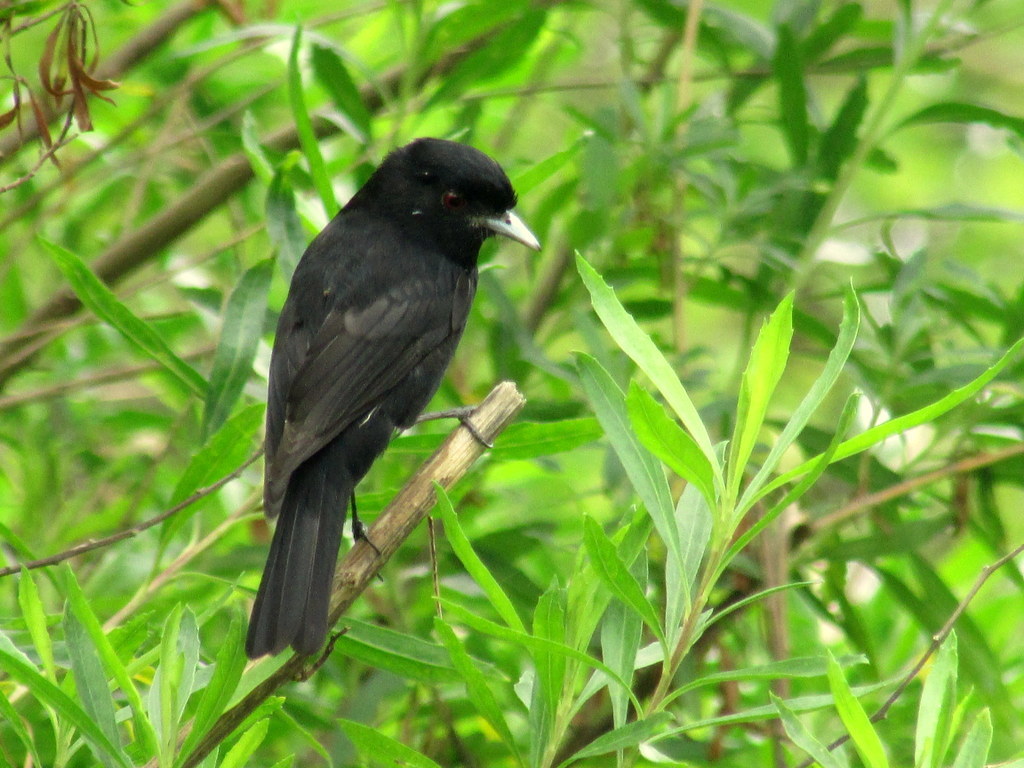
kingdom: Animalia
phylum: Chordata
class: Aves
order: Passeriformes
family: Tyrannidae
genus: Knipolegus
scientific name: Knipolegus cyanirostris
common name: Blue-billed black tyrant
